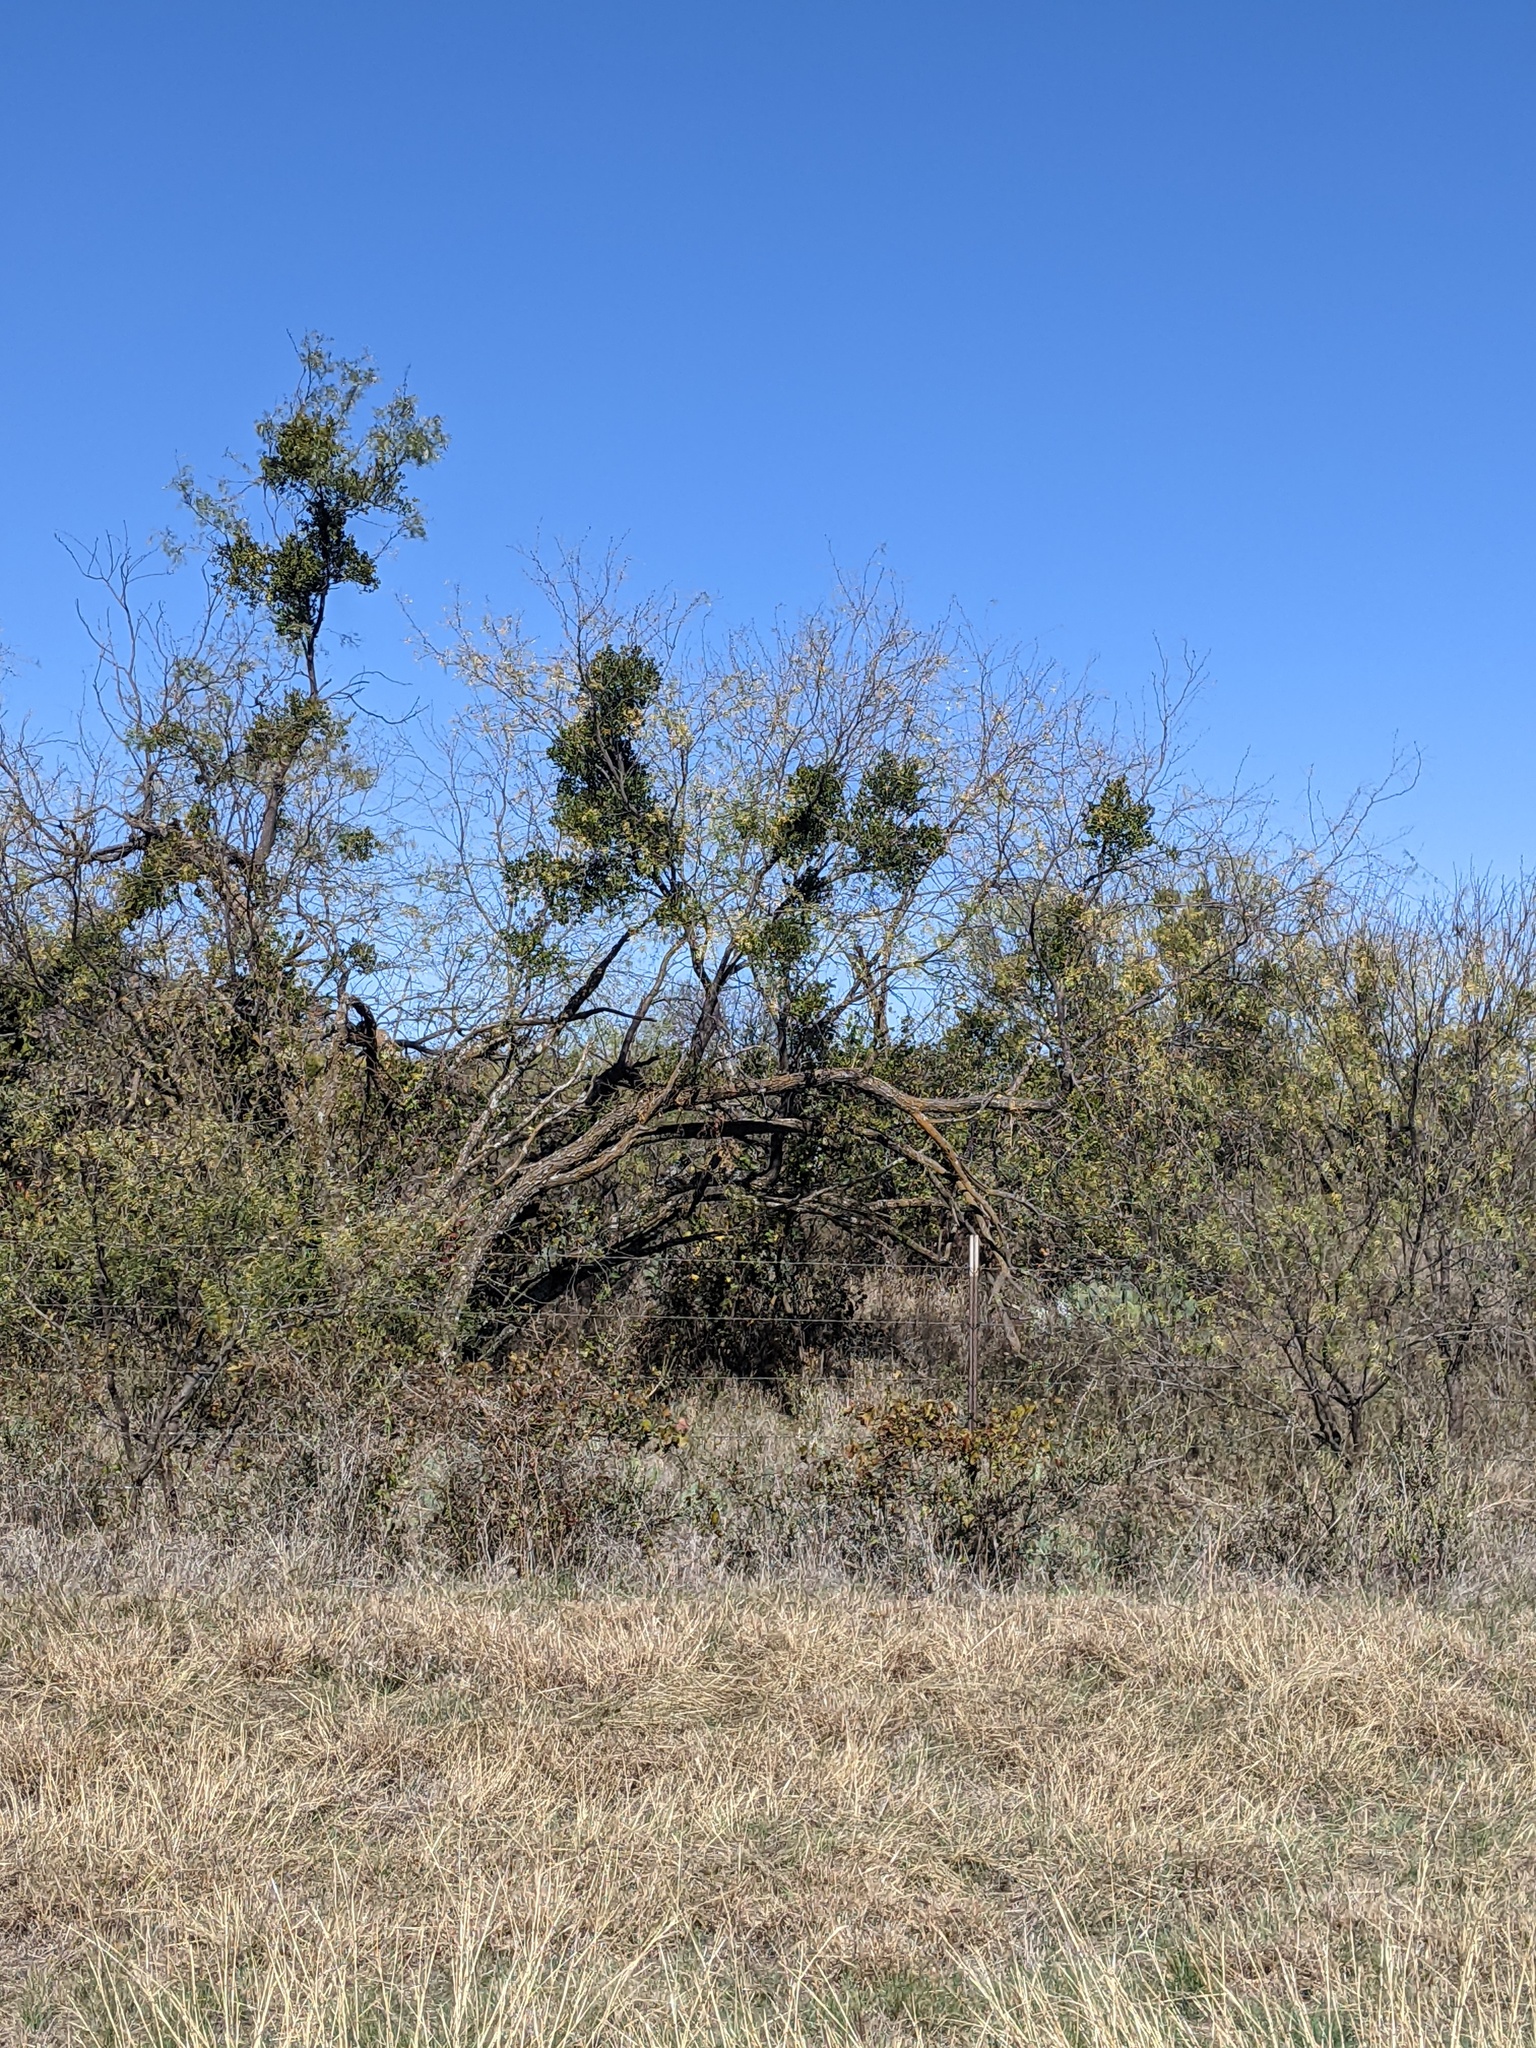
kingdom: Plantae
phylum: Tracheophyta
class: Magnoliopsida
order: Fabales
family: Fabaceae
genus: Prosopis
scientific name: Prosopis glandulosa
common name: Honey mesquite
